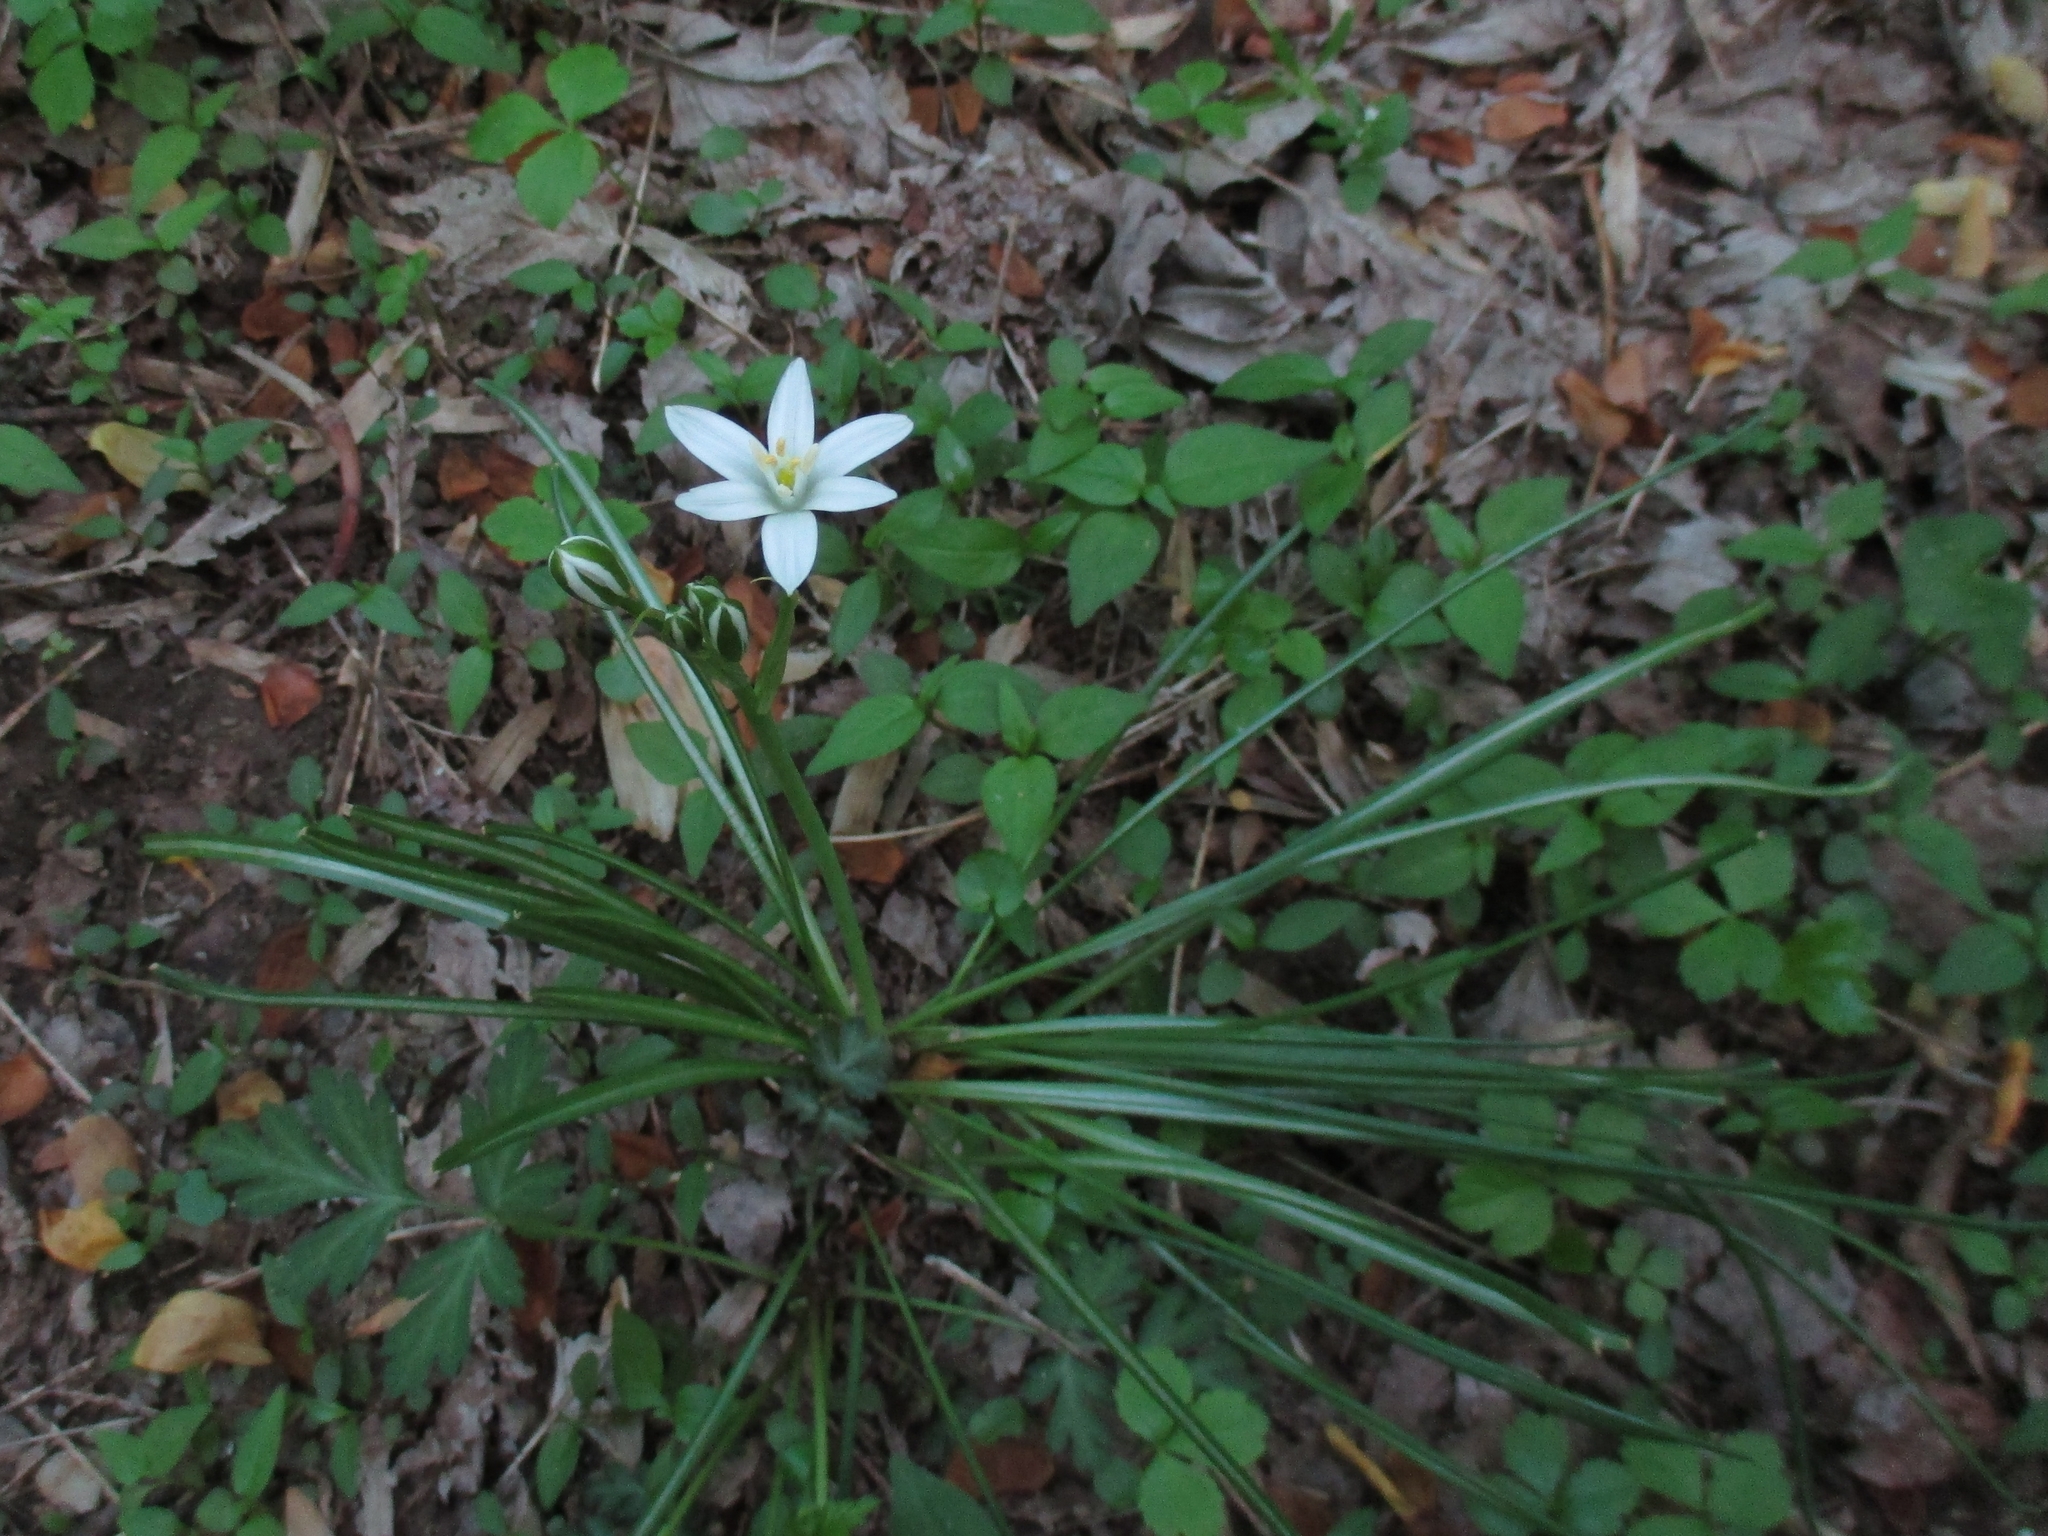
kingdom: Plantae
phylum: Tracheophyta
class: Liliopsida
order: Asparagales
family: Asparagaceae
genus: Ornithogalum
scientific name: Ornithogalum umbellatum
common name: Garden star-of-bethlehem
